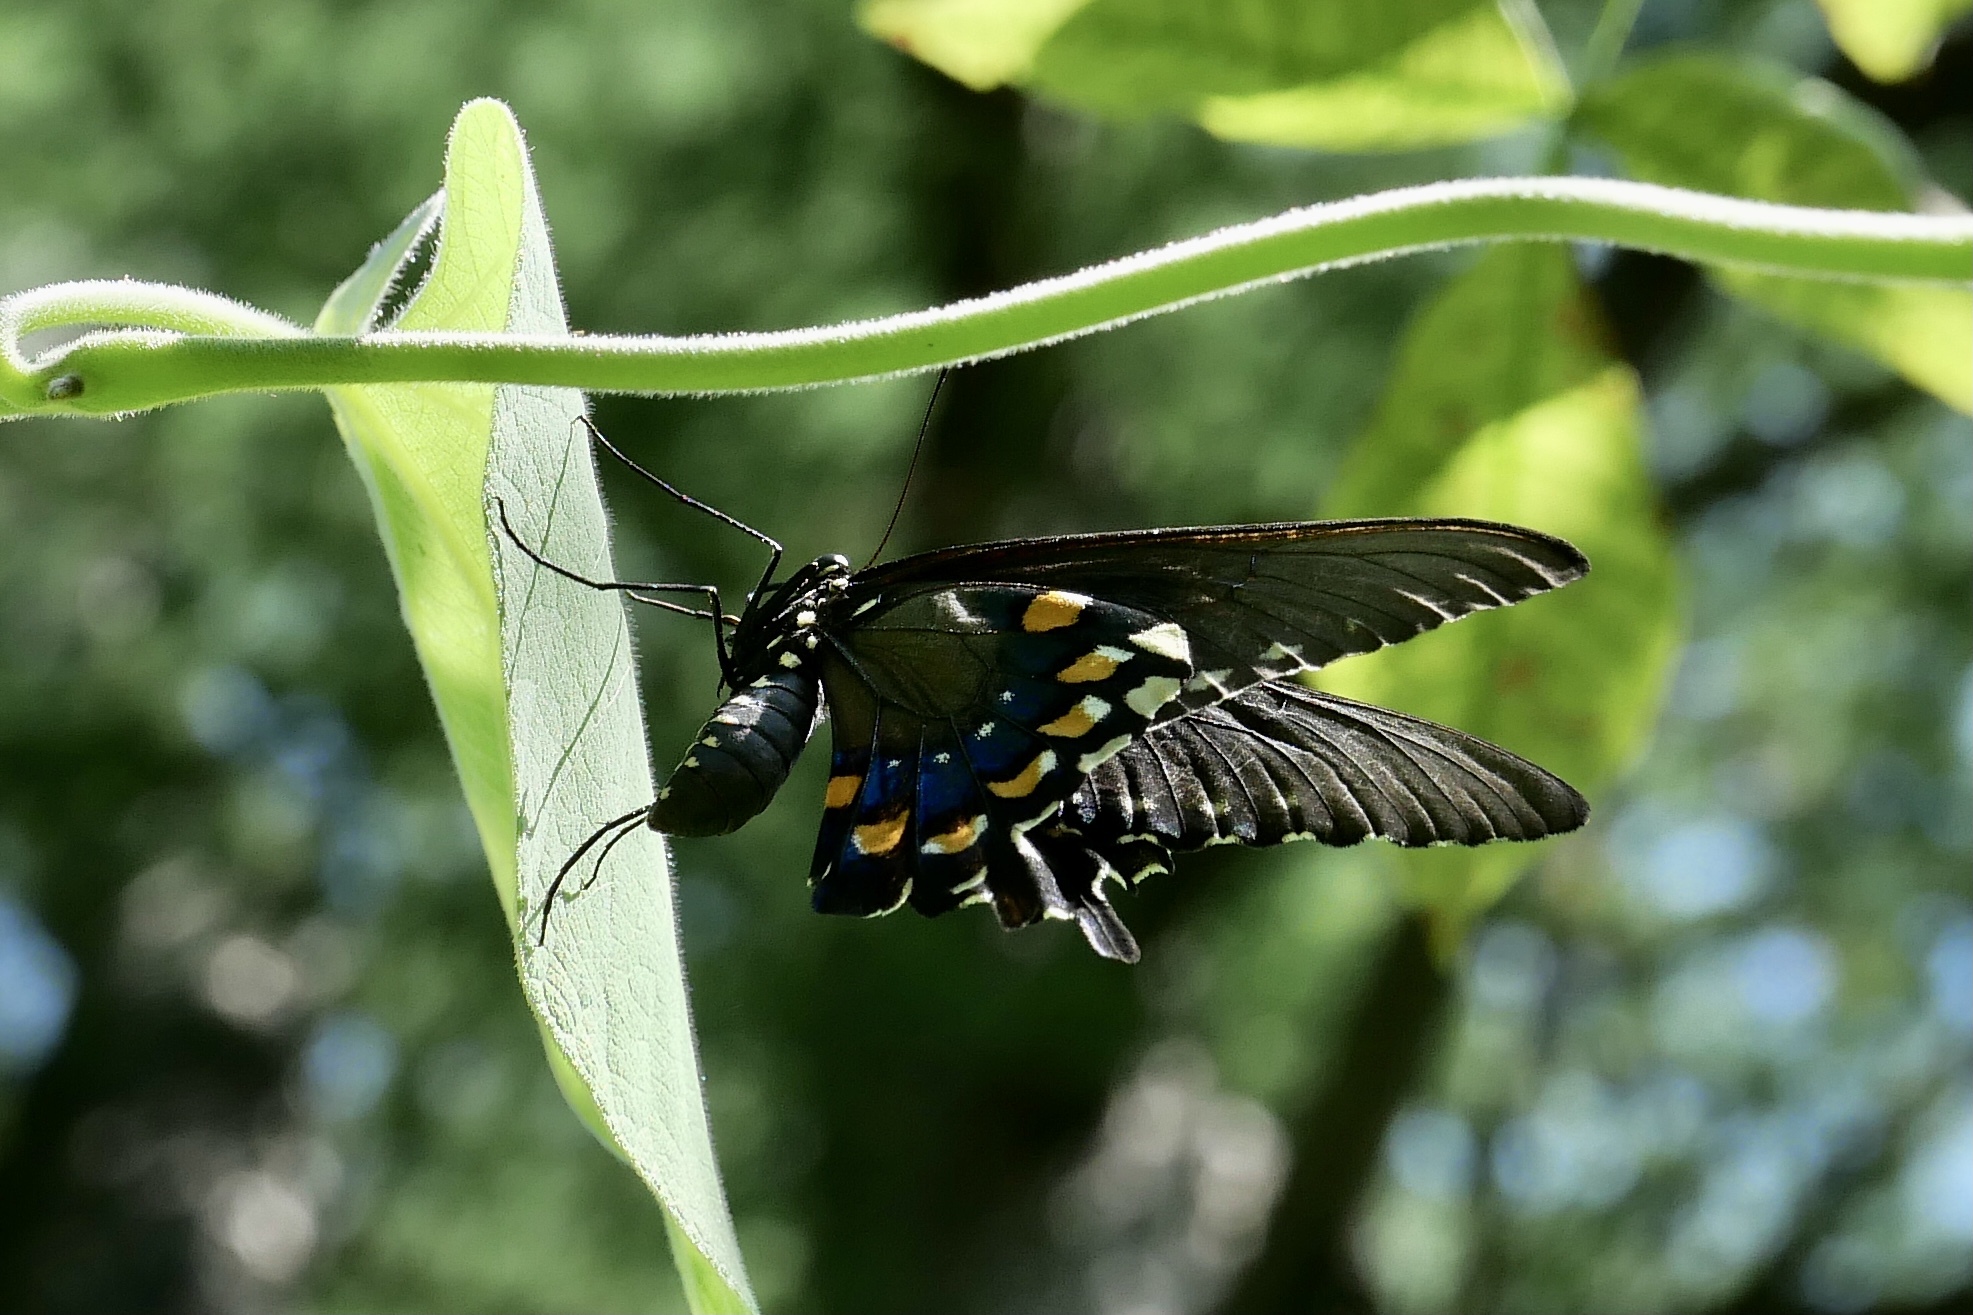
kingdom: Animalia
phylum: Arthropoda
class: Insecta
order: Lepidoptera
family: Papilionidae
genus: Battus
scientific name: Battus philenor
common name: Pipevine swallowtail
